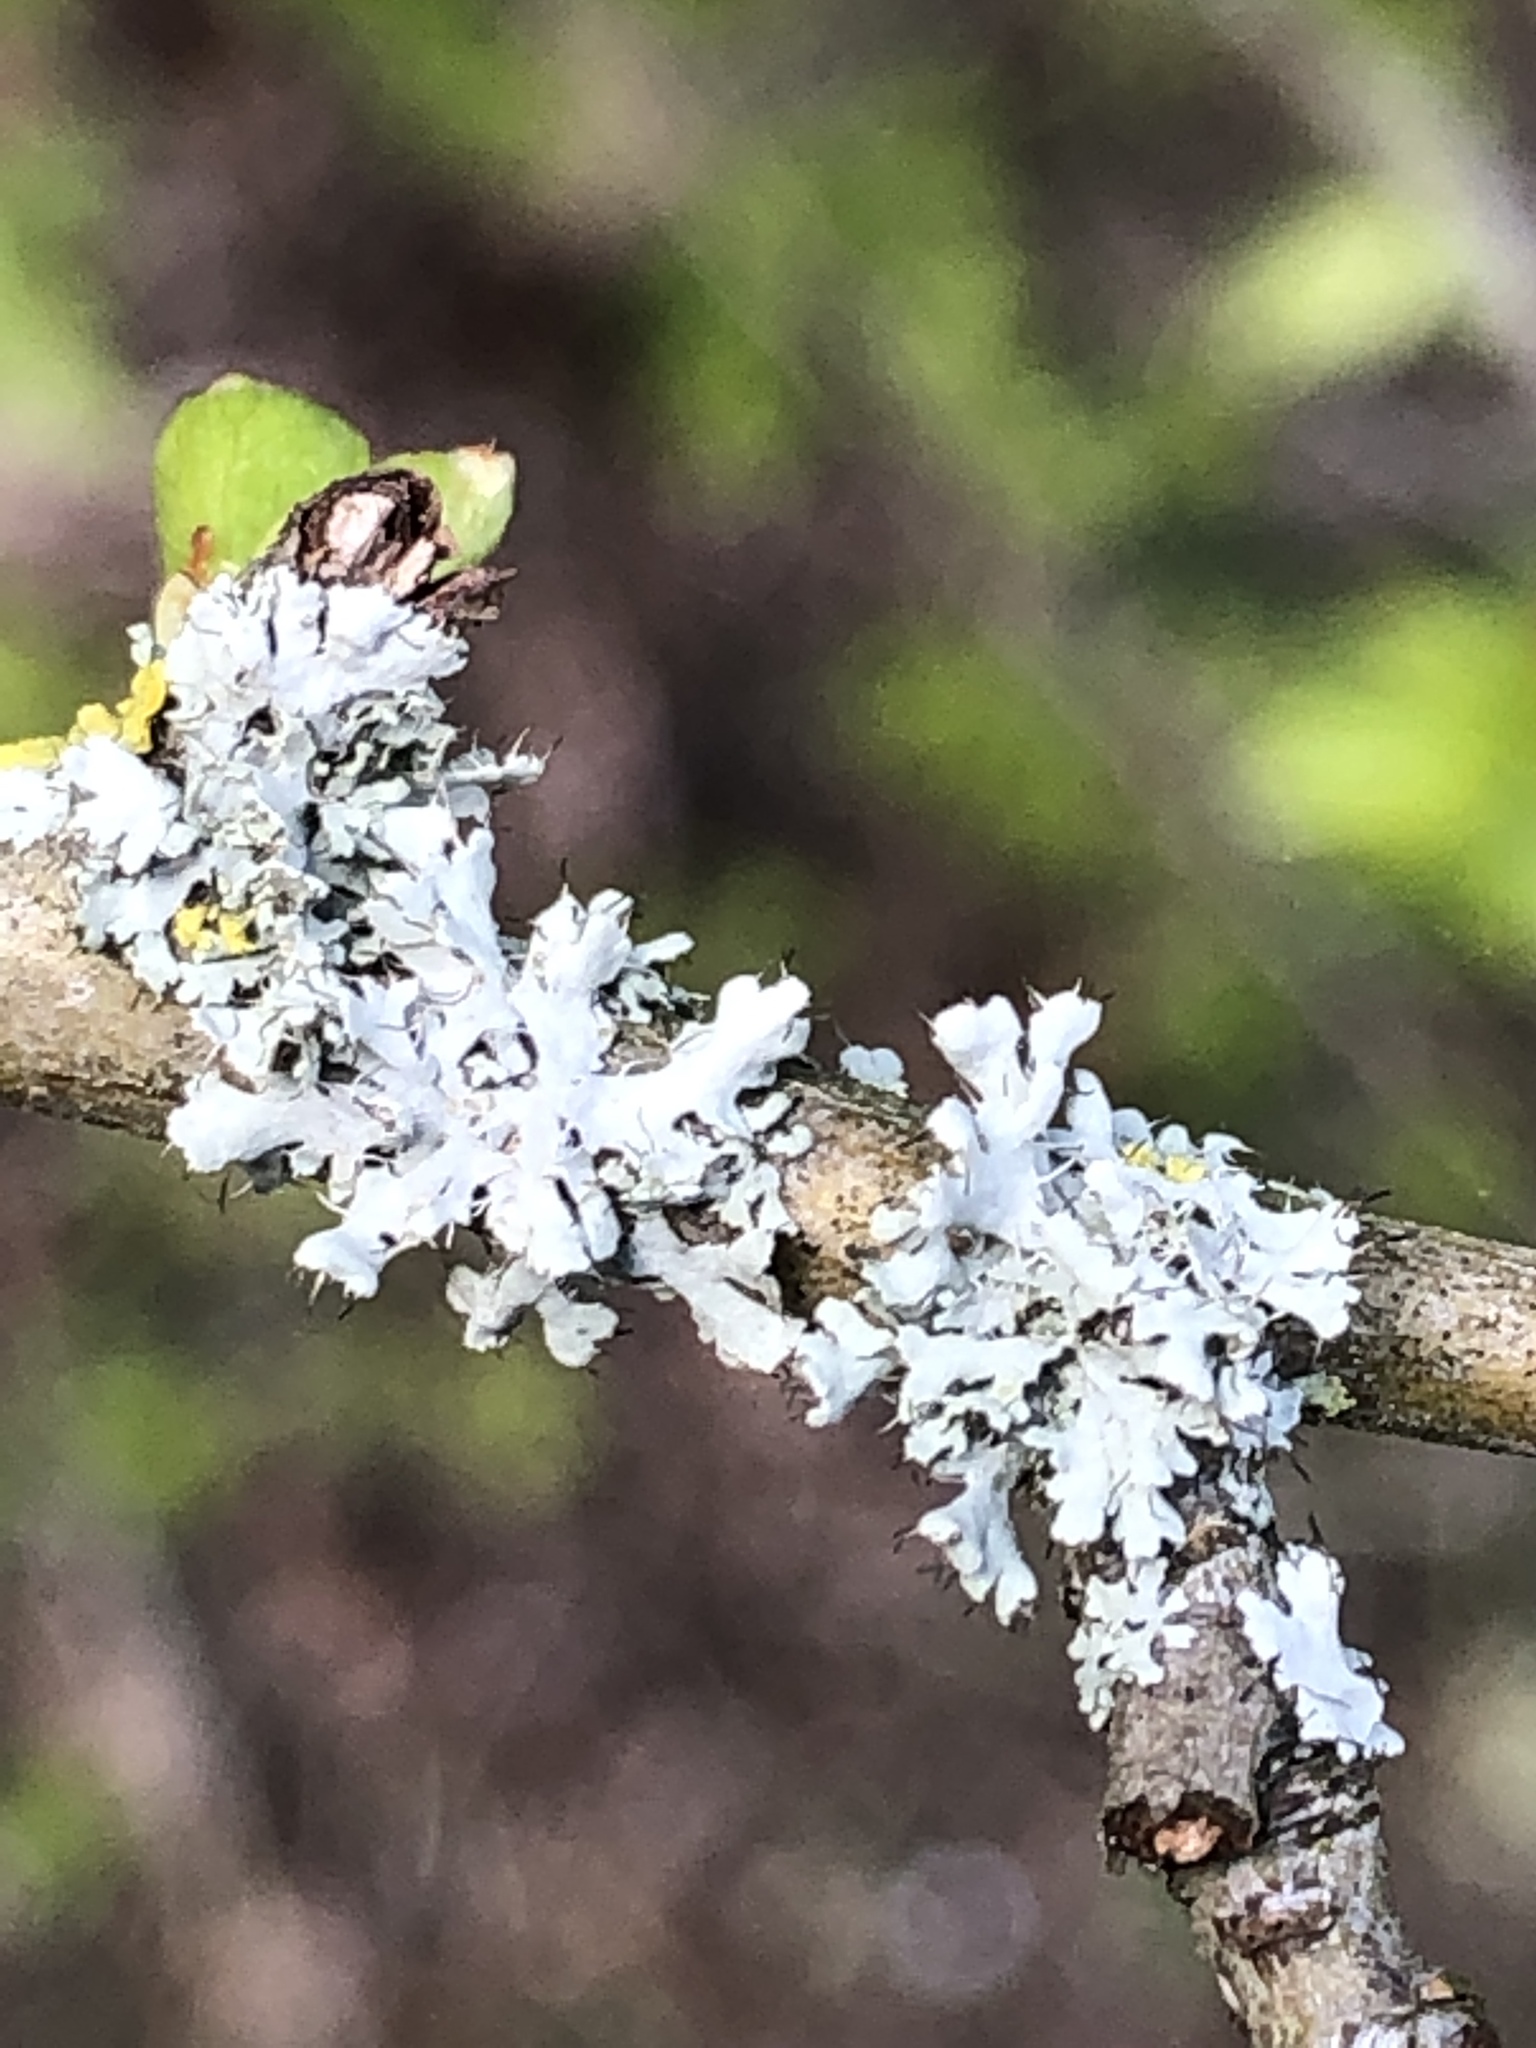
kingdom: Fungi
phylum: Ascomycota
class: Lecanoromycetes
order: Caliciales
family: Physciaceae
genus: Physcia
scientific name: Physcia adscendens
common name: Hooded rosette lichen
